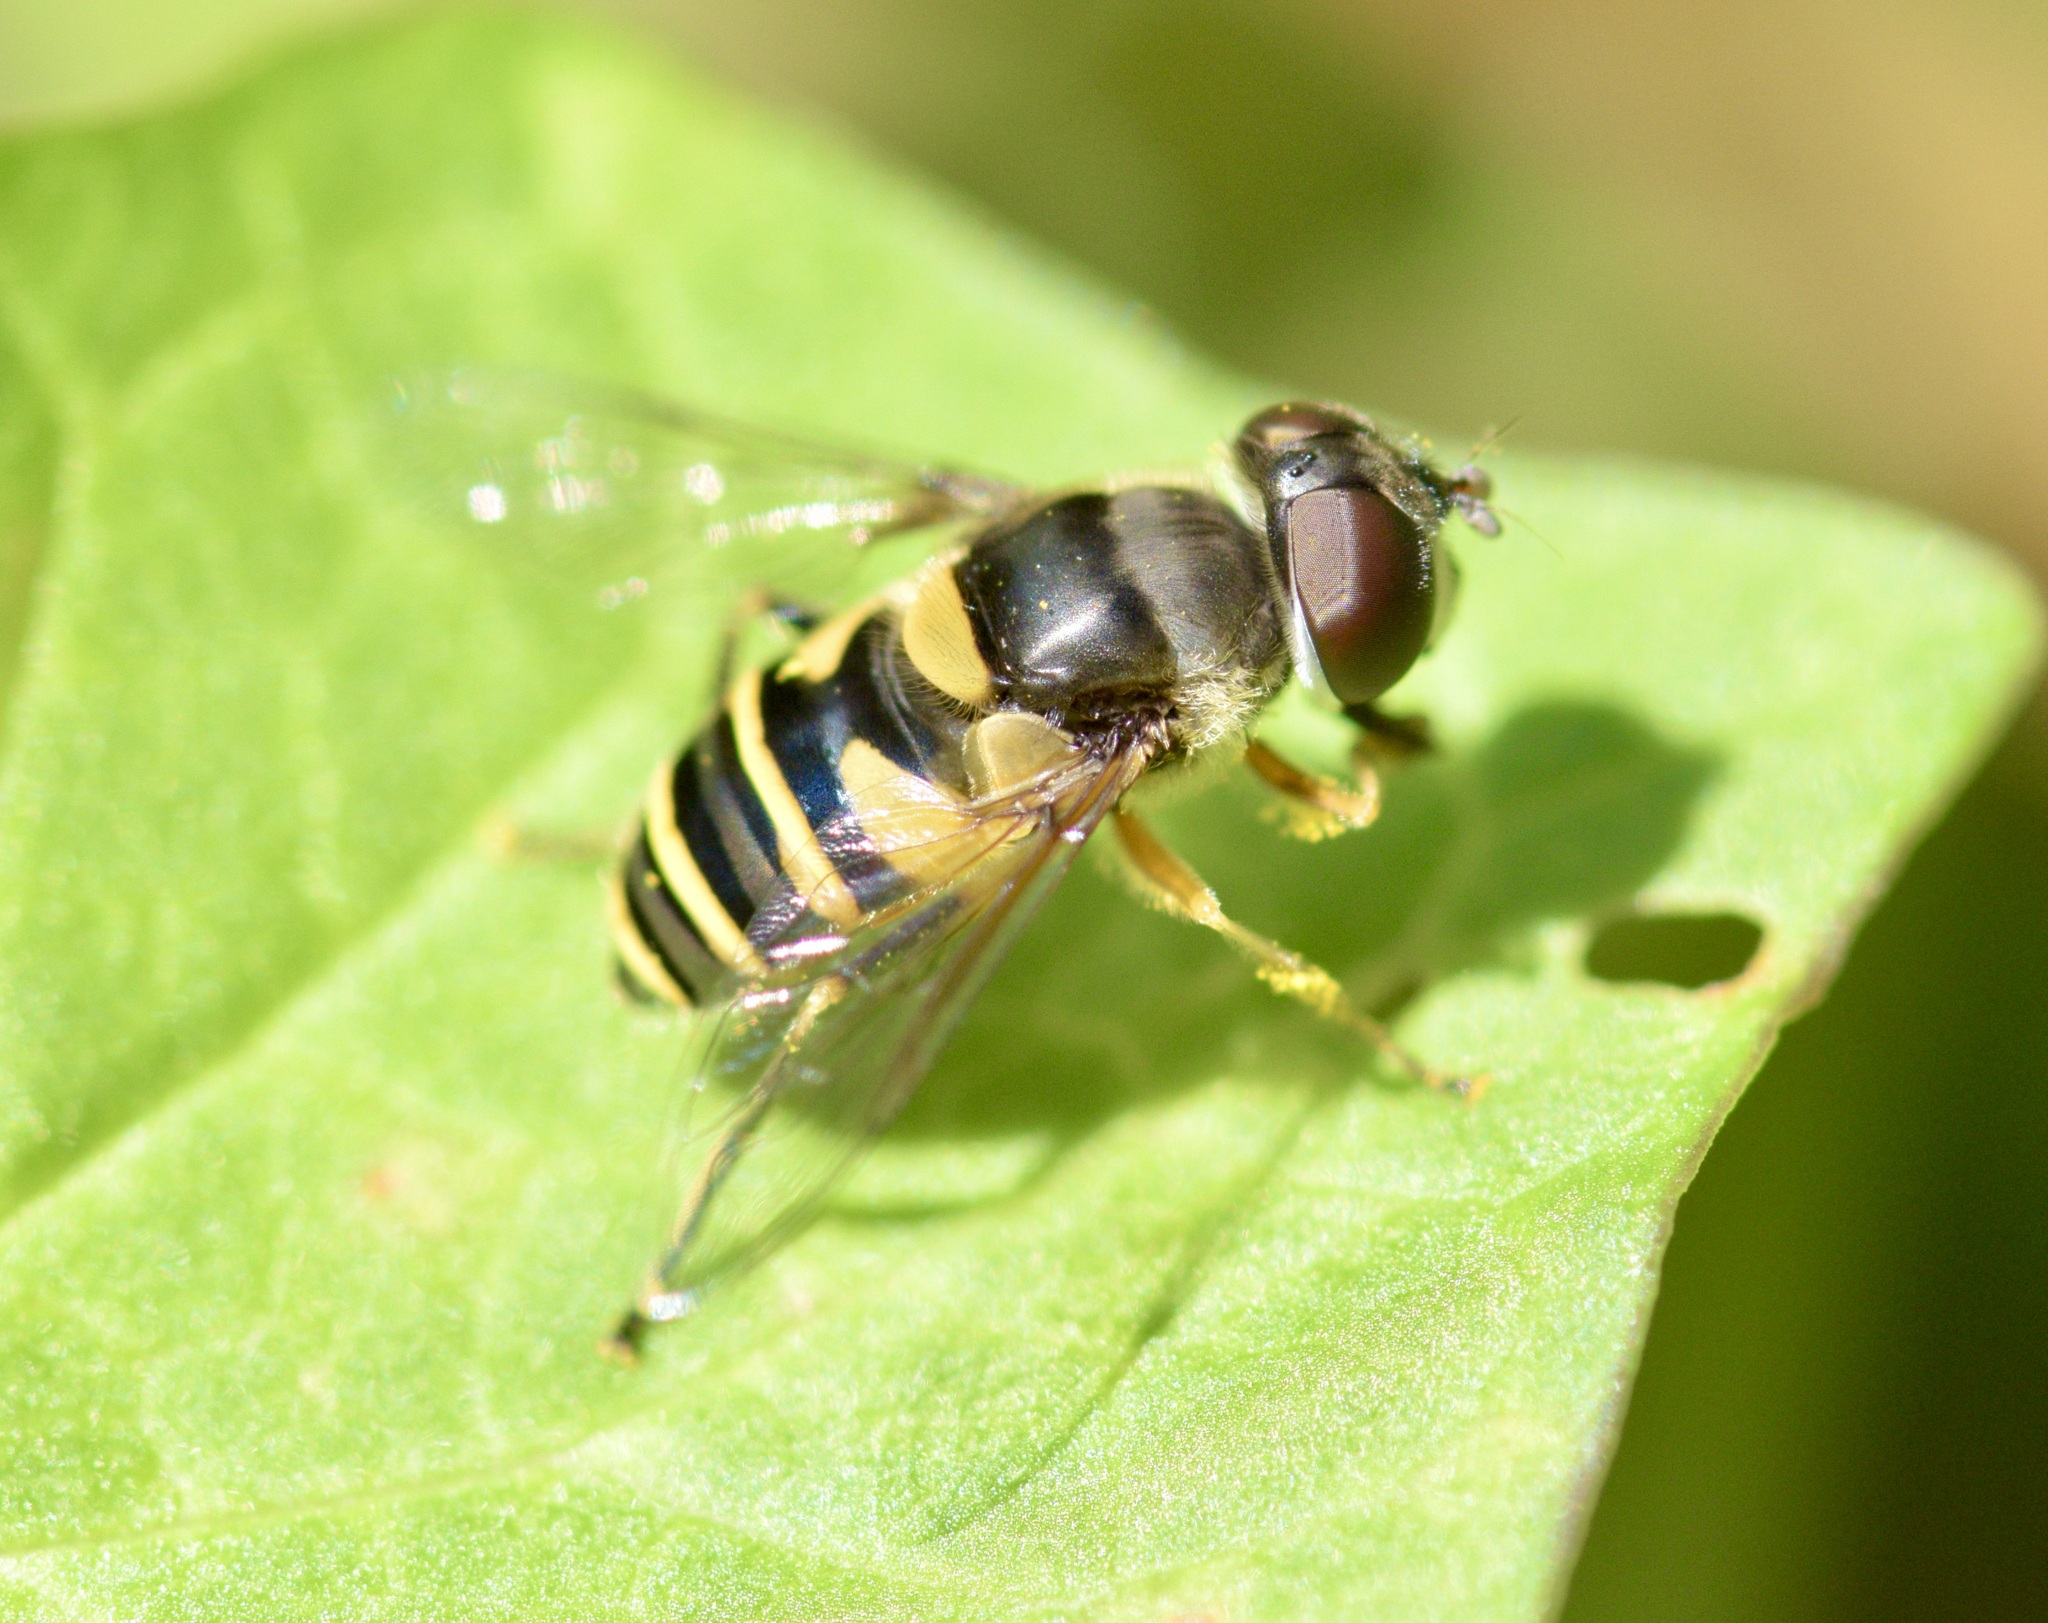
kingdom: Animalia
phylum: Arthropoda
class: Insecta
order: Diptera
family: Syrphidae
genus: Eristalis
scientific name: Eristalis transversa
